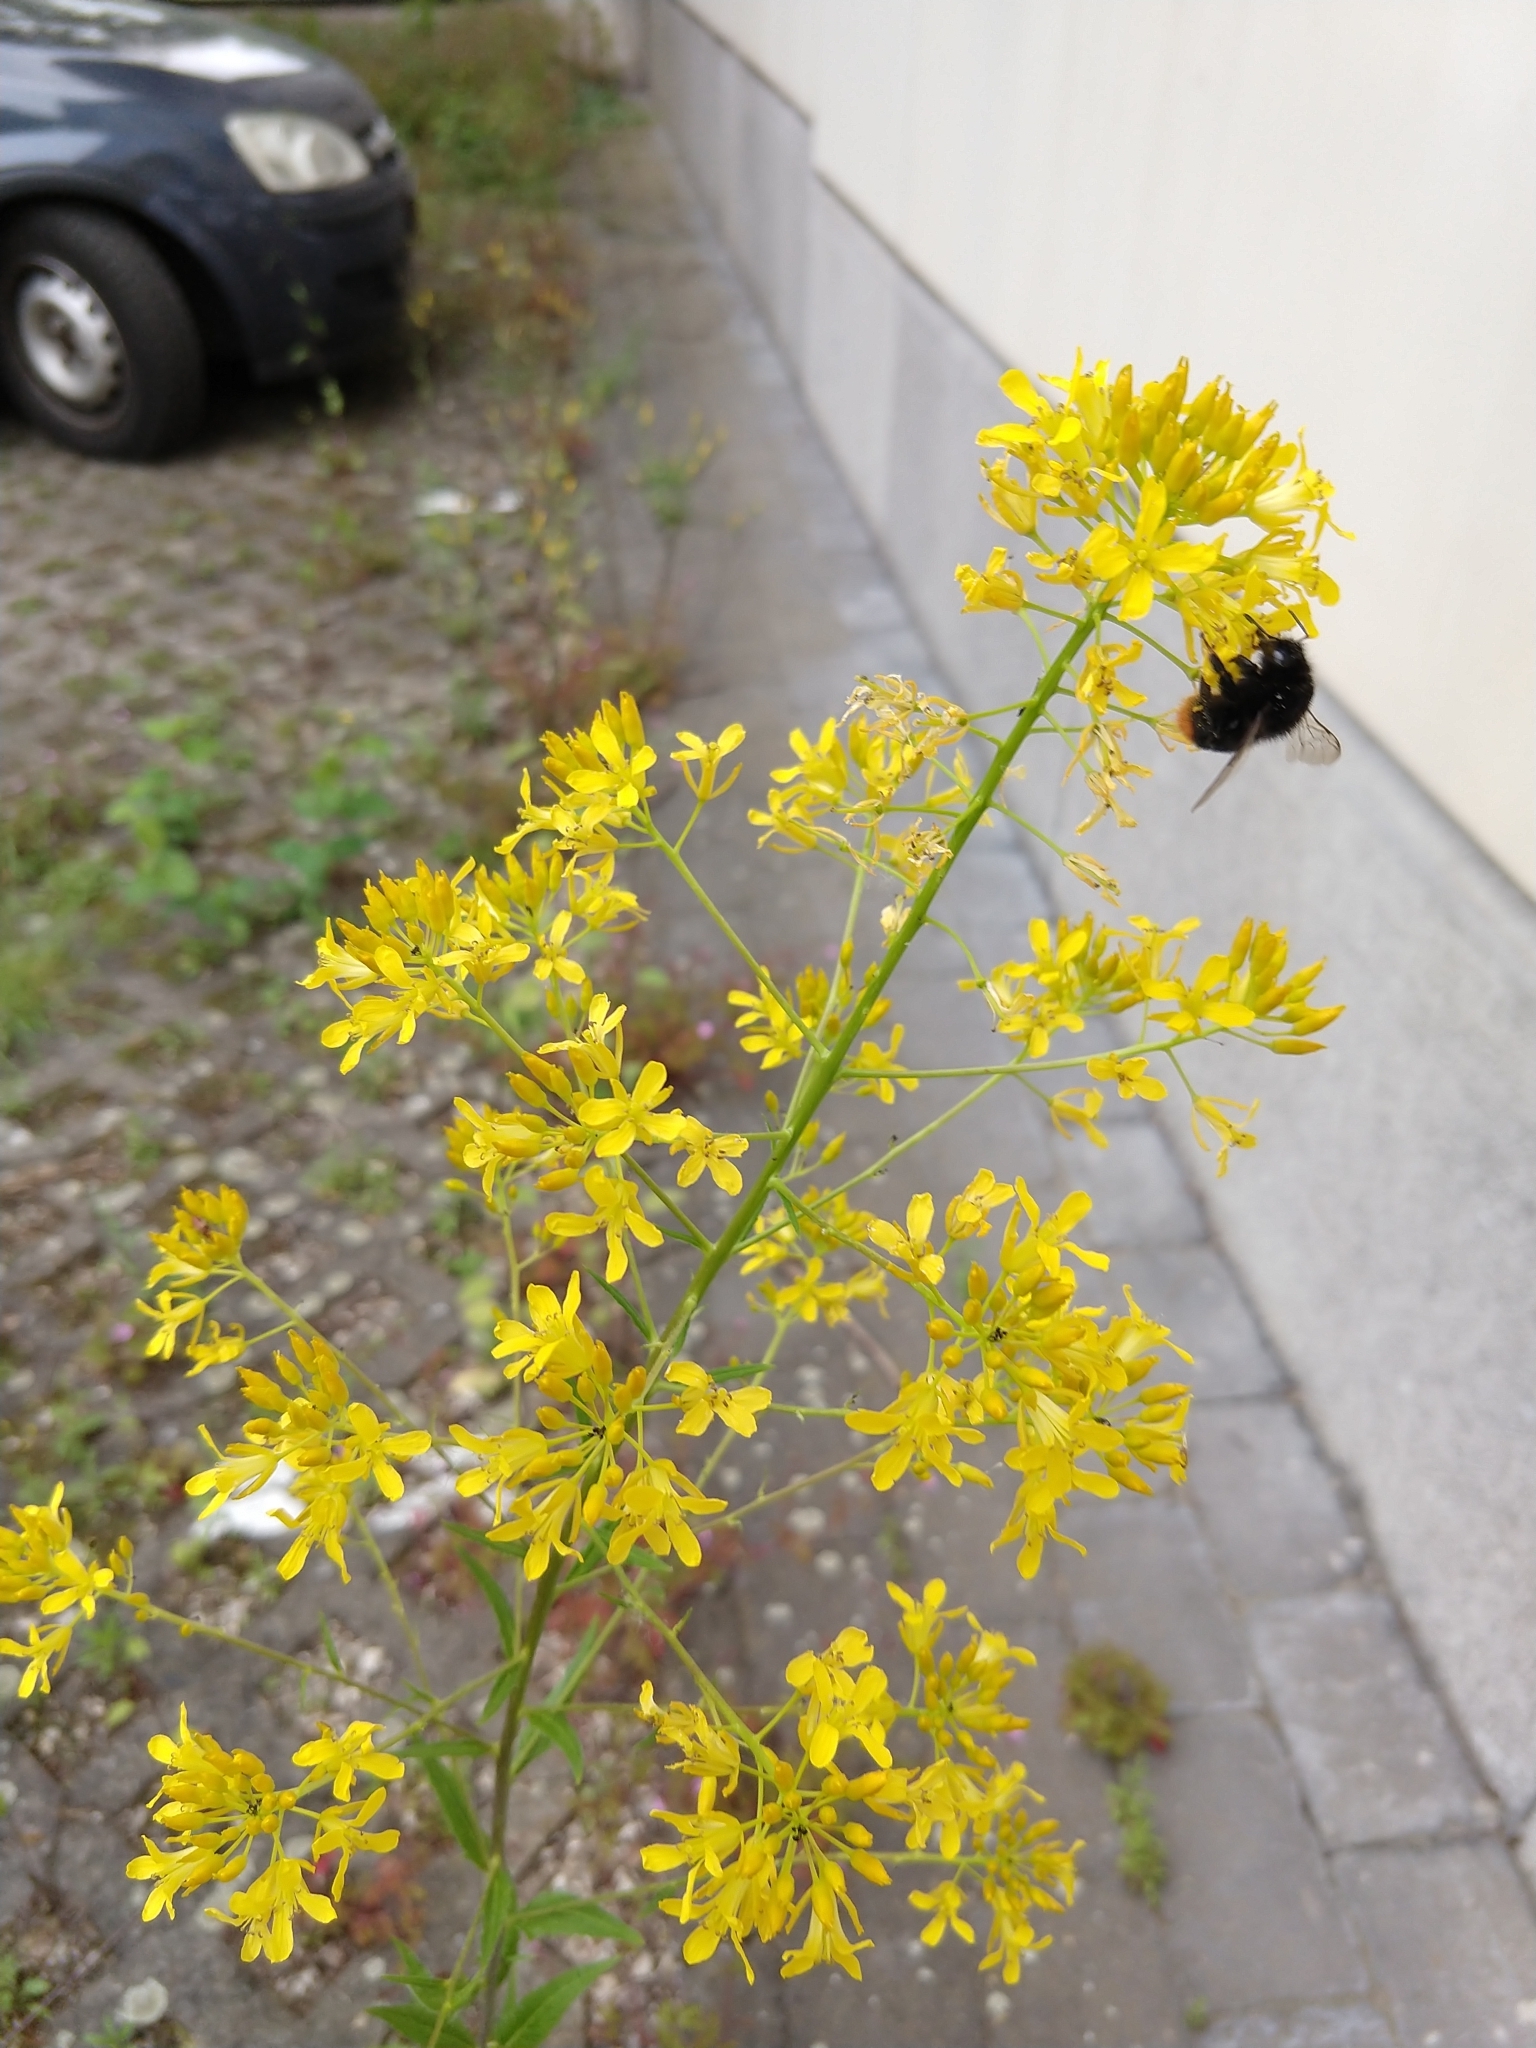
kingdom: Plantae
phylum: Tracheophyta
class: Magnoliopsida
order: Brassicales
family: Brassicaceae
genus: Sisymbrium
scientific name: Sisymbrium strictissimum
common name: Perennial rocket
